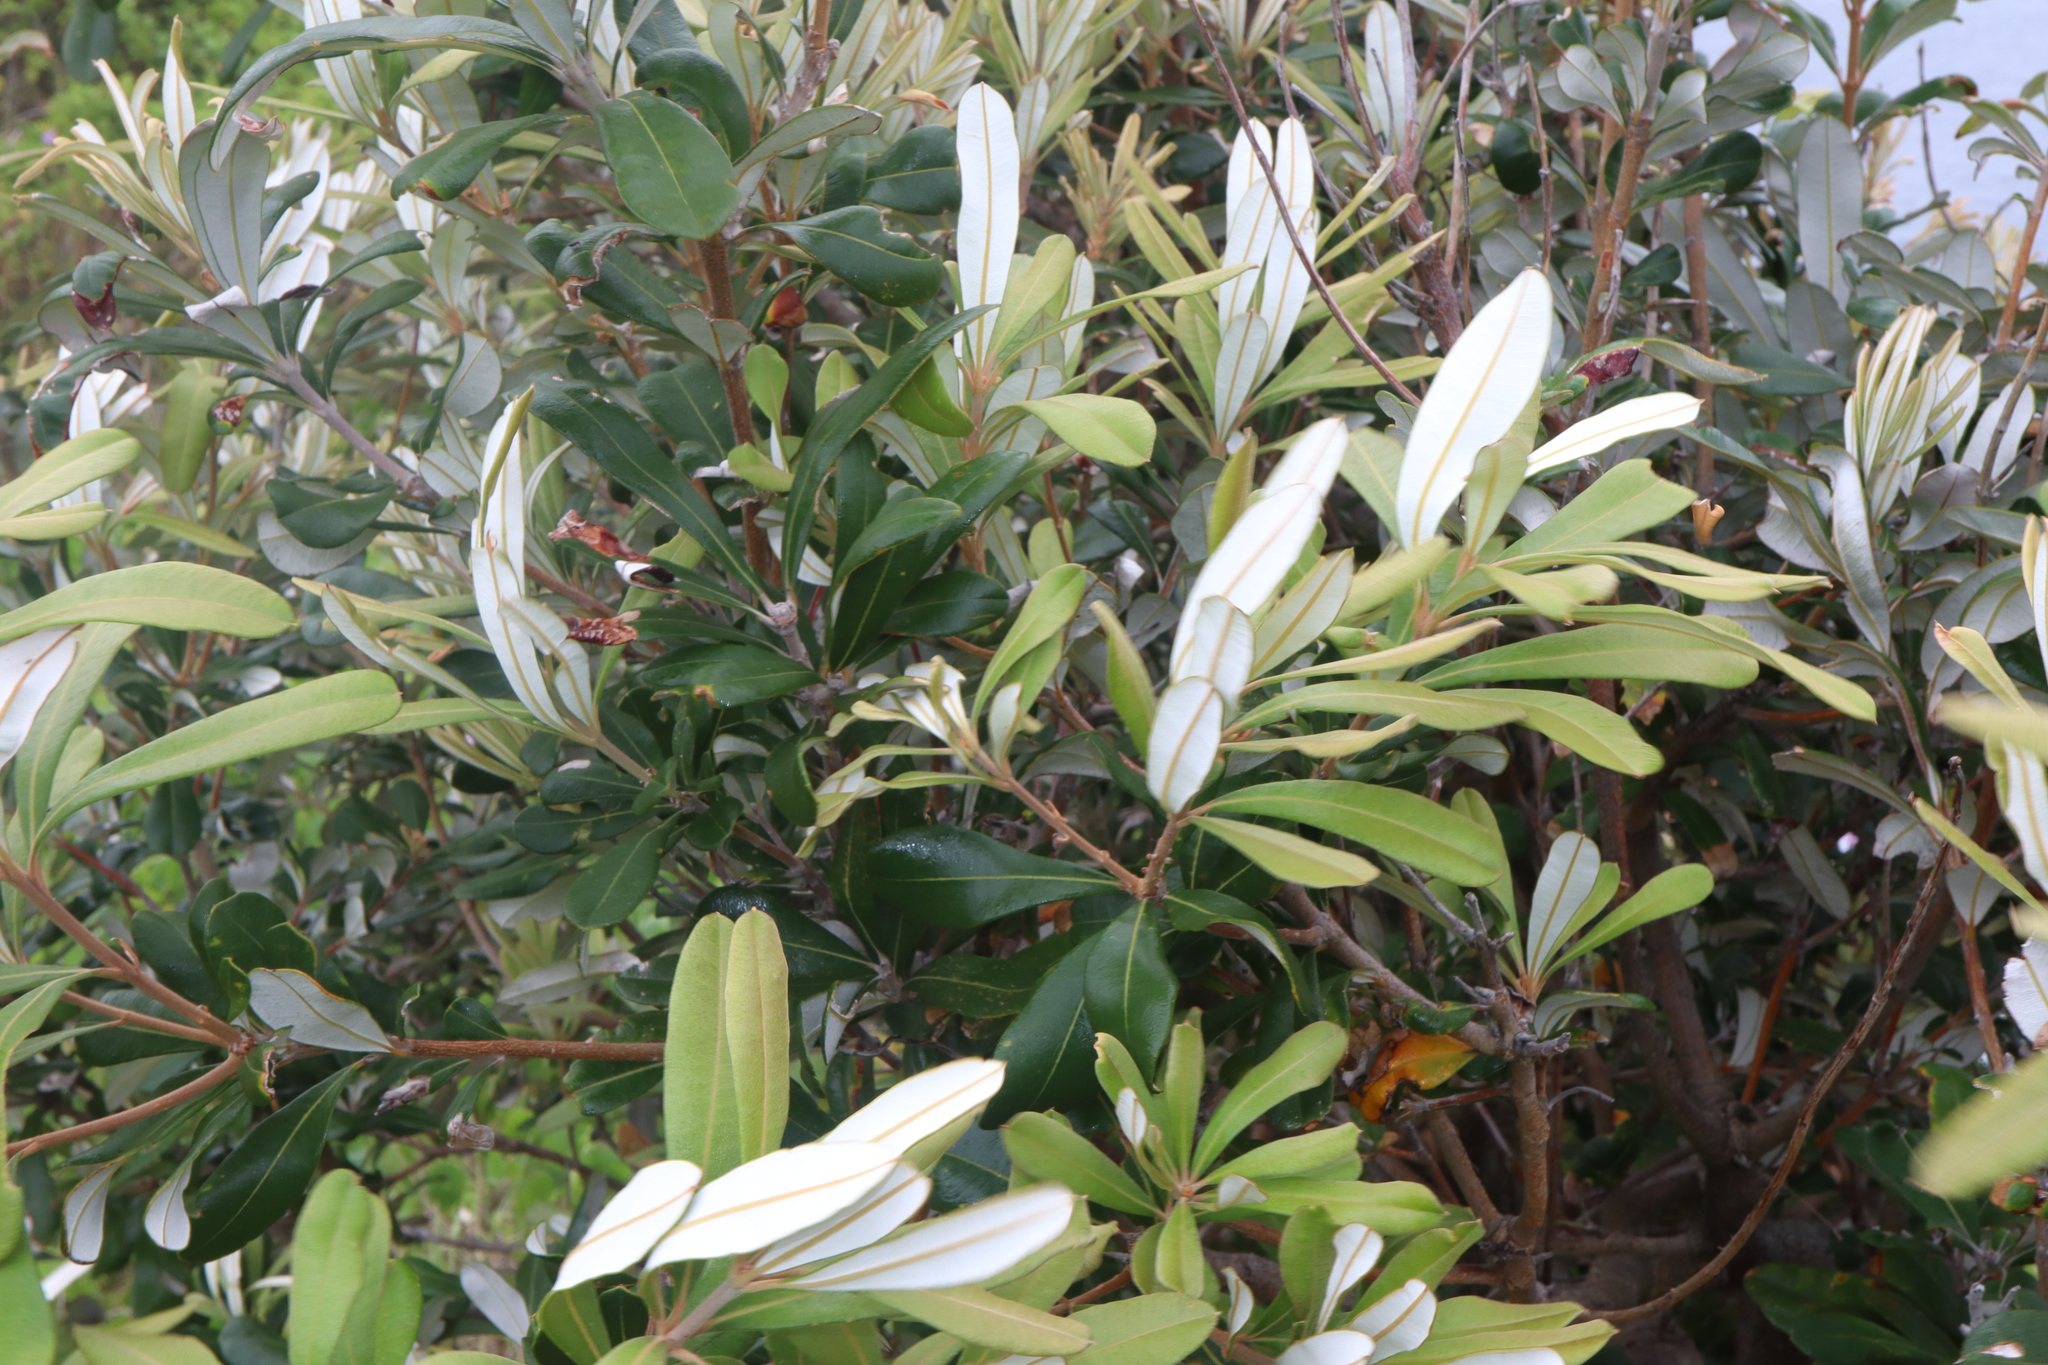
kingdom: Plantae
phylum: Tracheophyta
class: Magnoliopsida
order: Proteales
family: Proteaceae
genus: Banksia
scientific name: Banksia integrifolia
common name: White-honeysuckle
